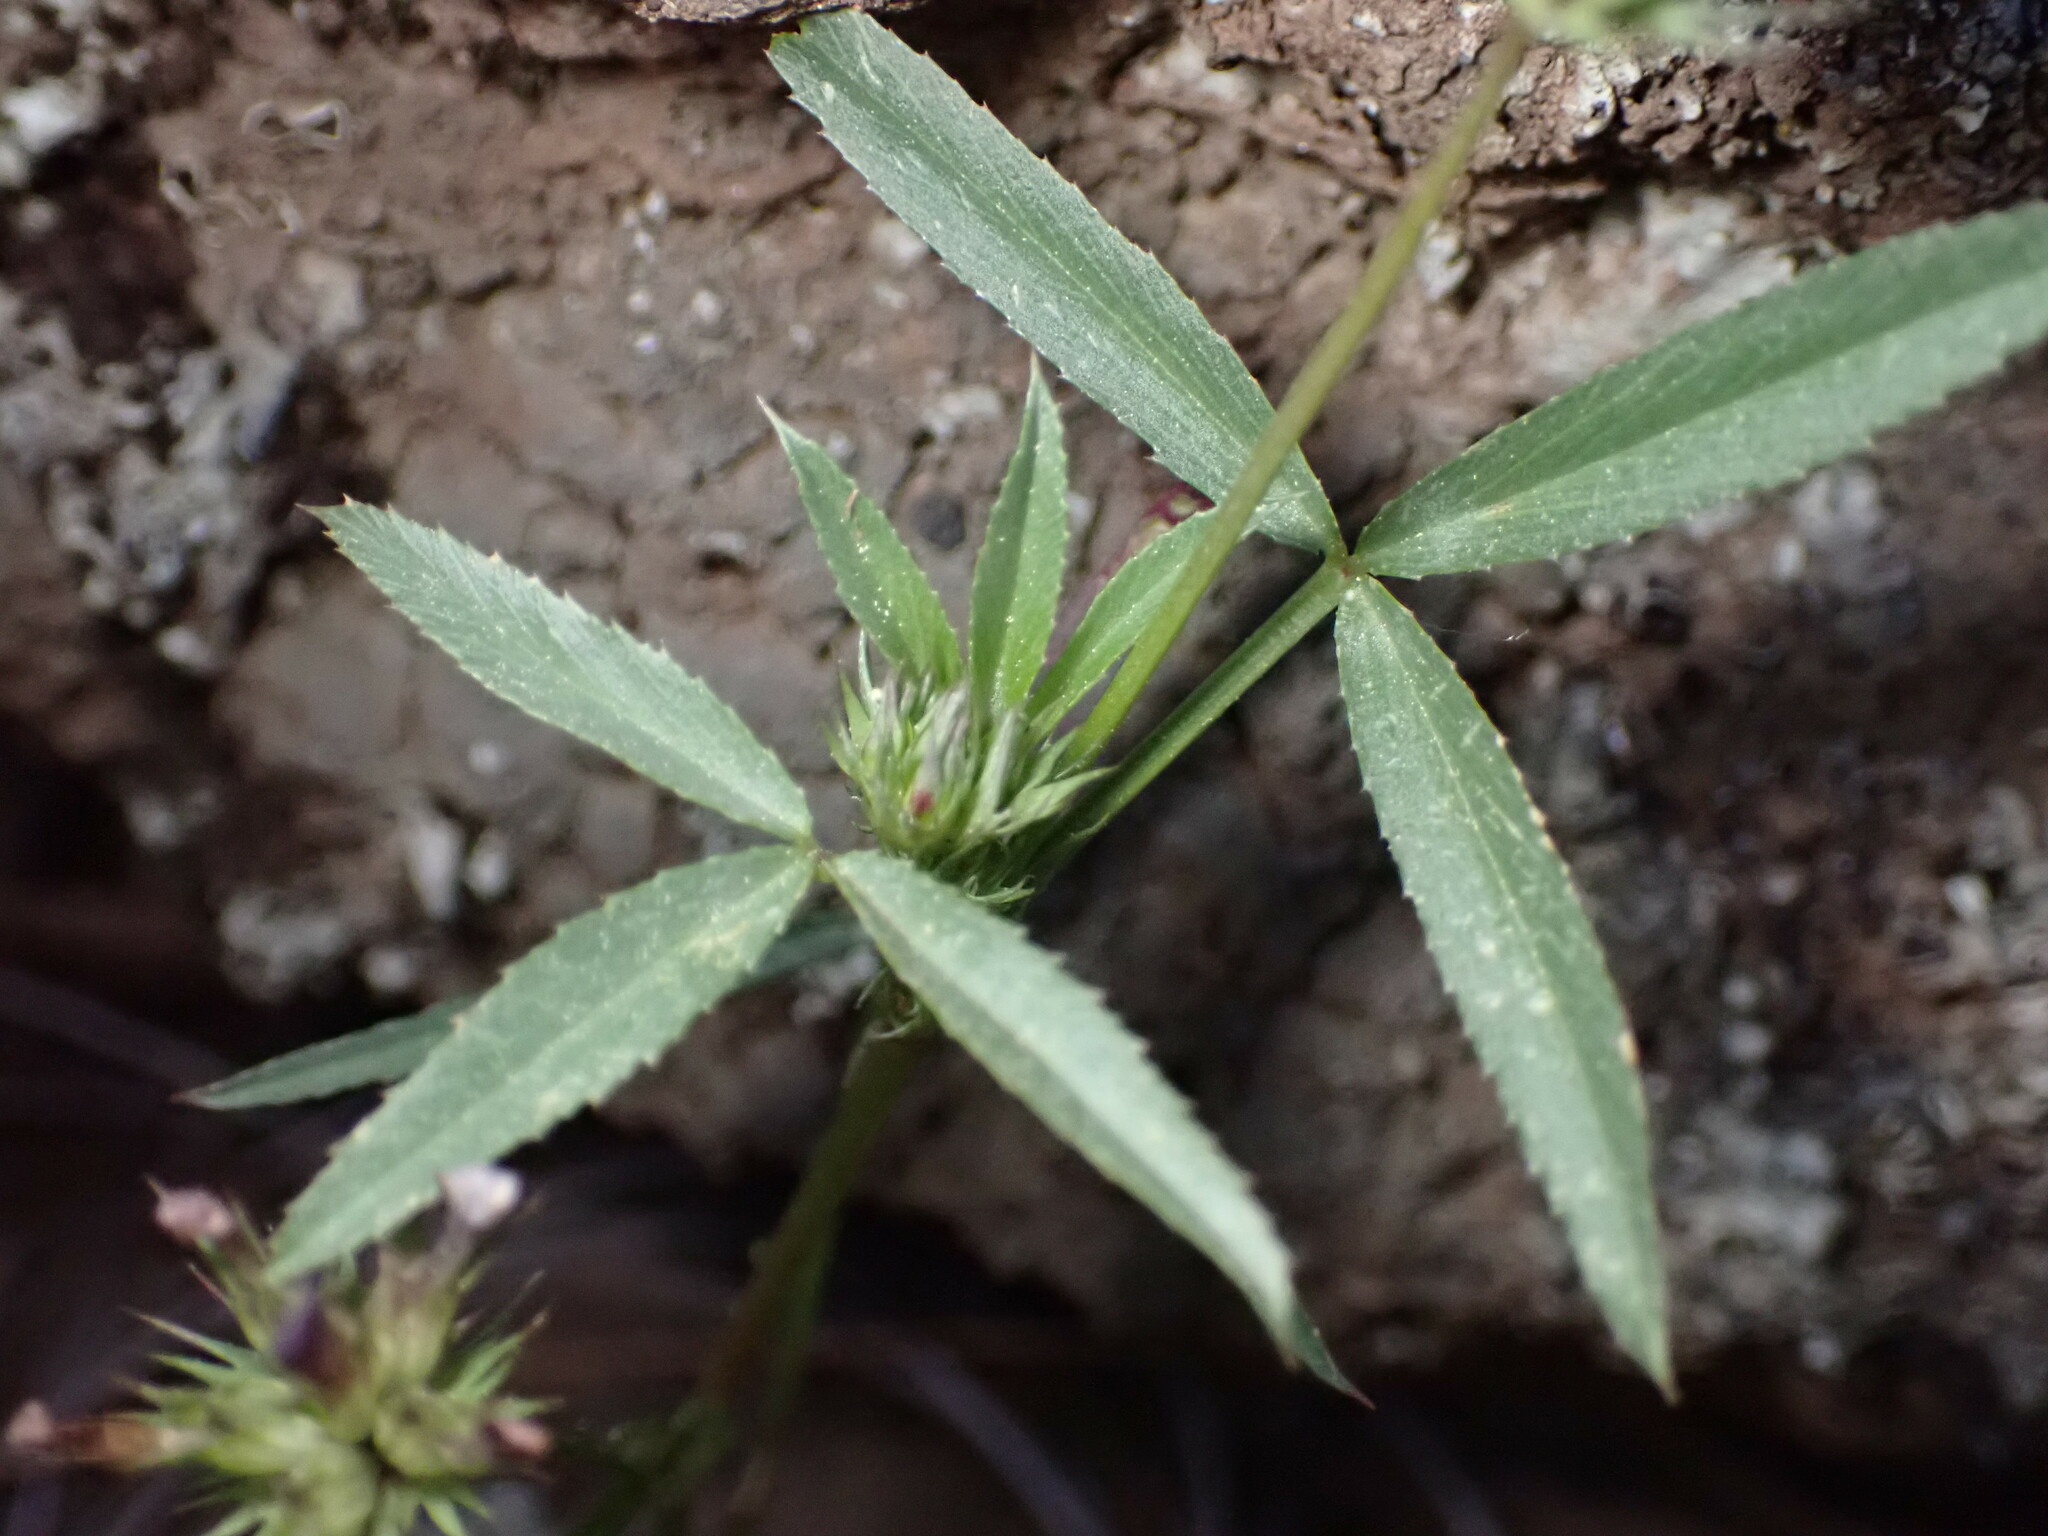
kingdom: Plantae
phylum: Tracheophyta
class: Magnoliopsida
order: Fabales
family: Fabaceae
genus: Trifolium
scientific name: Trifolium willdenovii
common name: Tomcat clover
